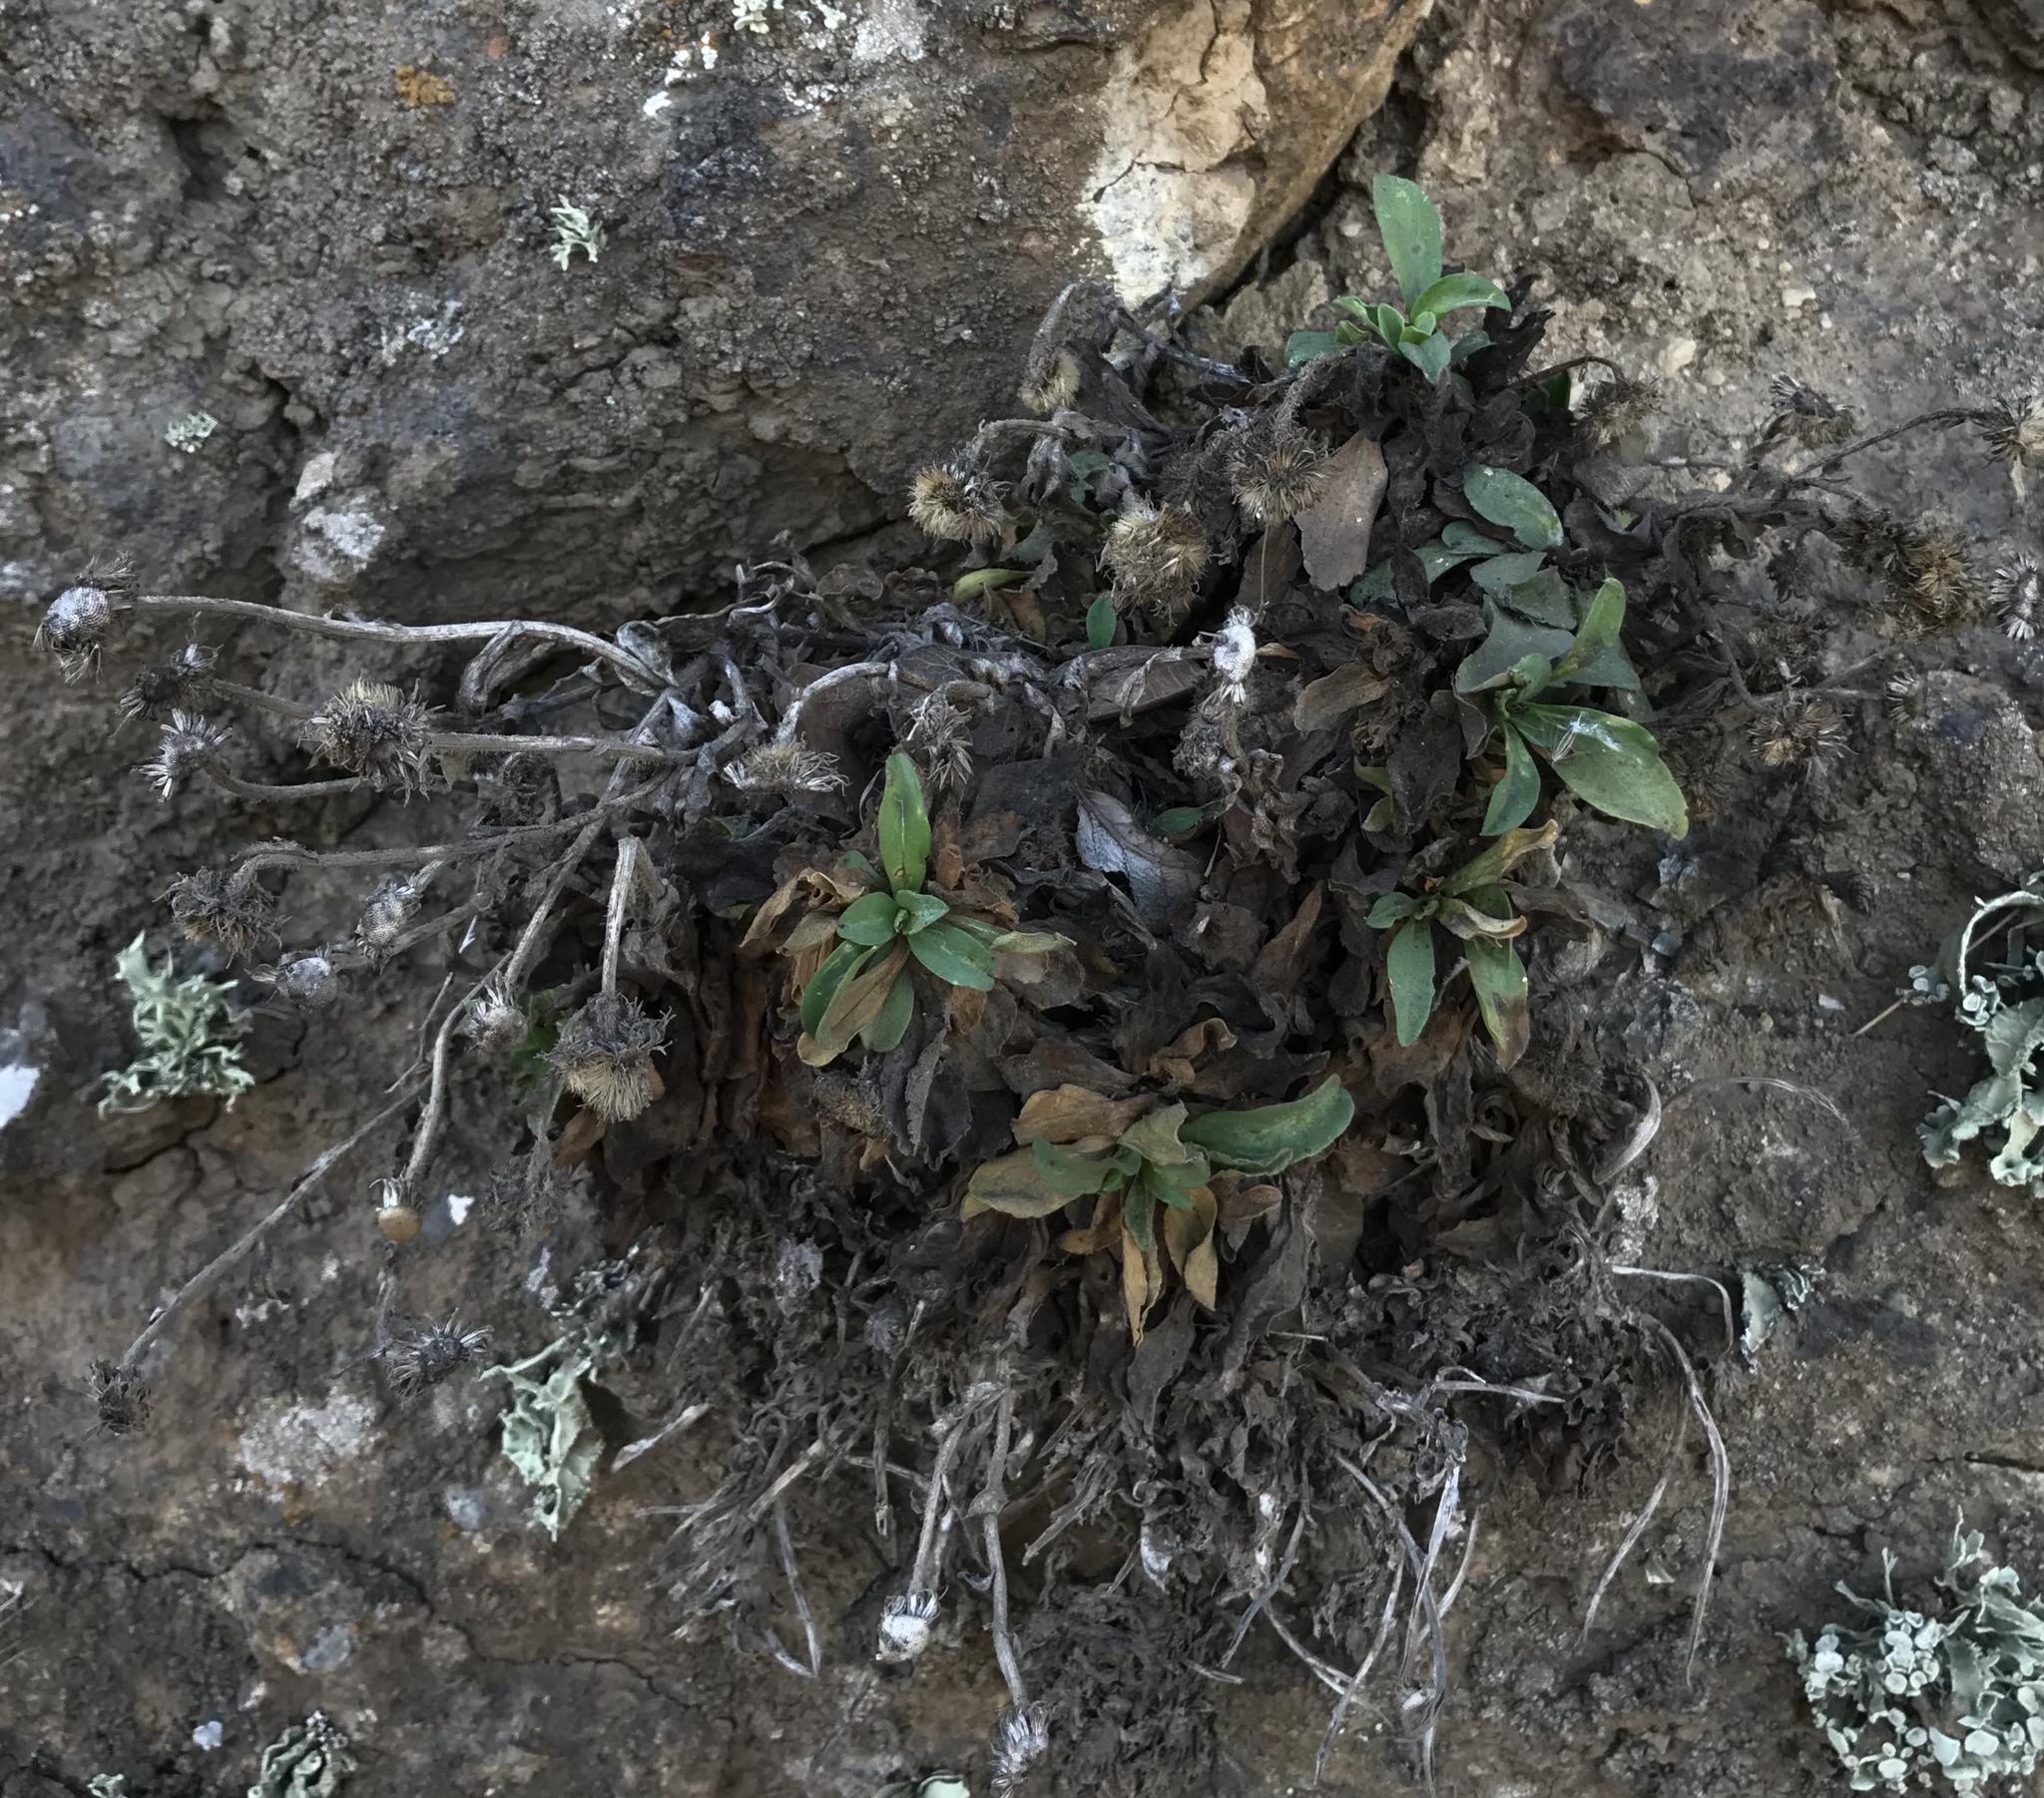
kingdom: Plantae
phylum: Tracheophyta
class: Magnoliopsida
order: Asterales
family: Asteraceae
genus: Erigeron
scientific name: Erigeron glaucus
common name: Seaside daisy
